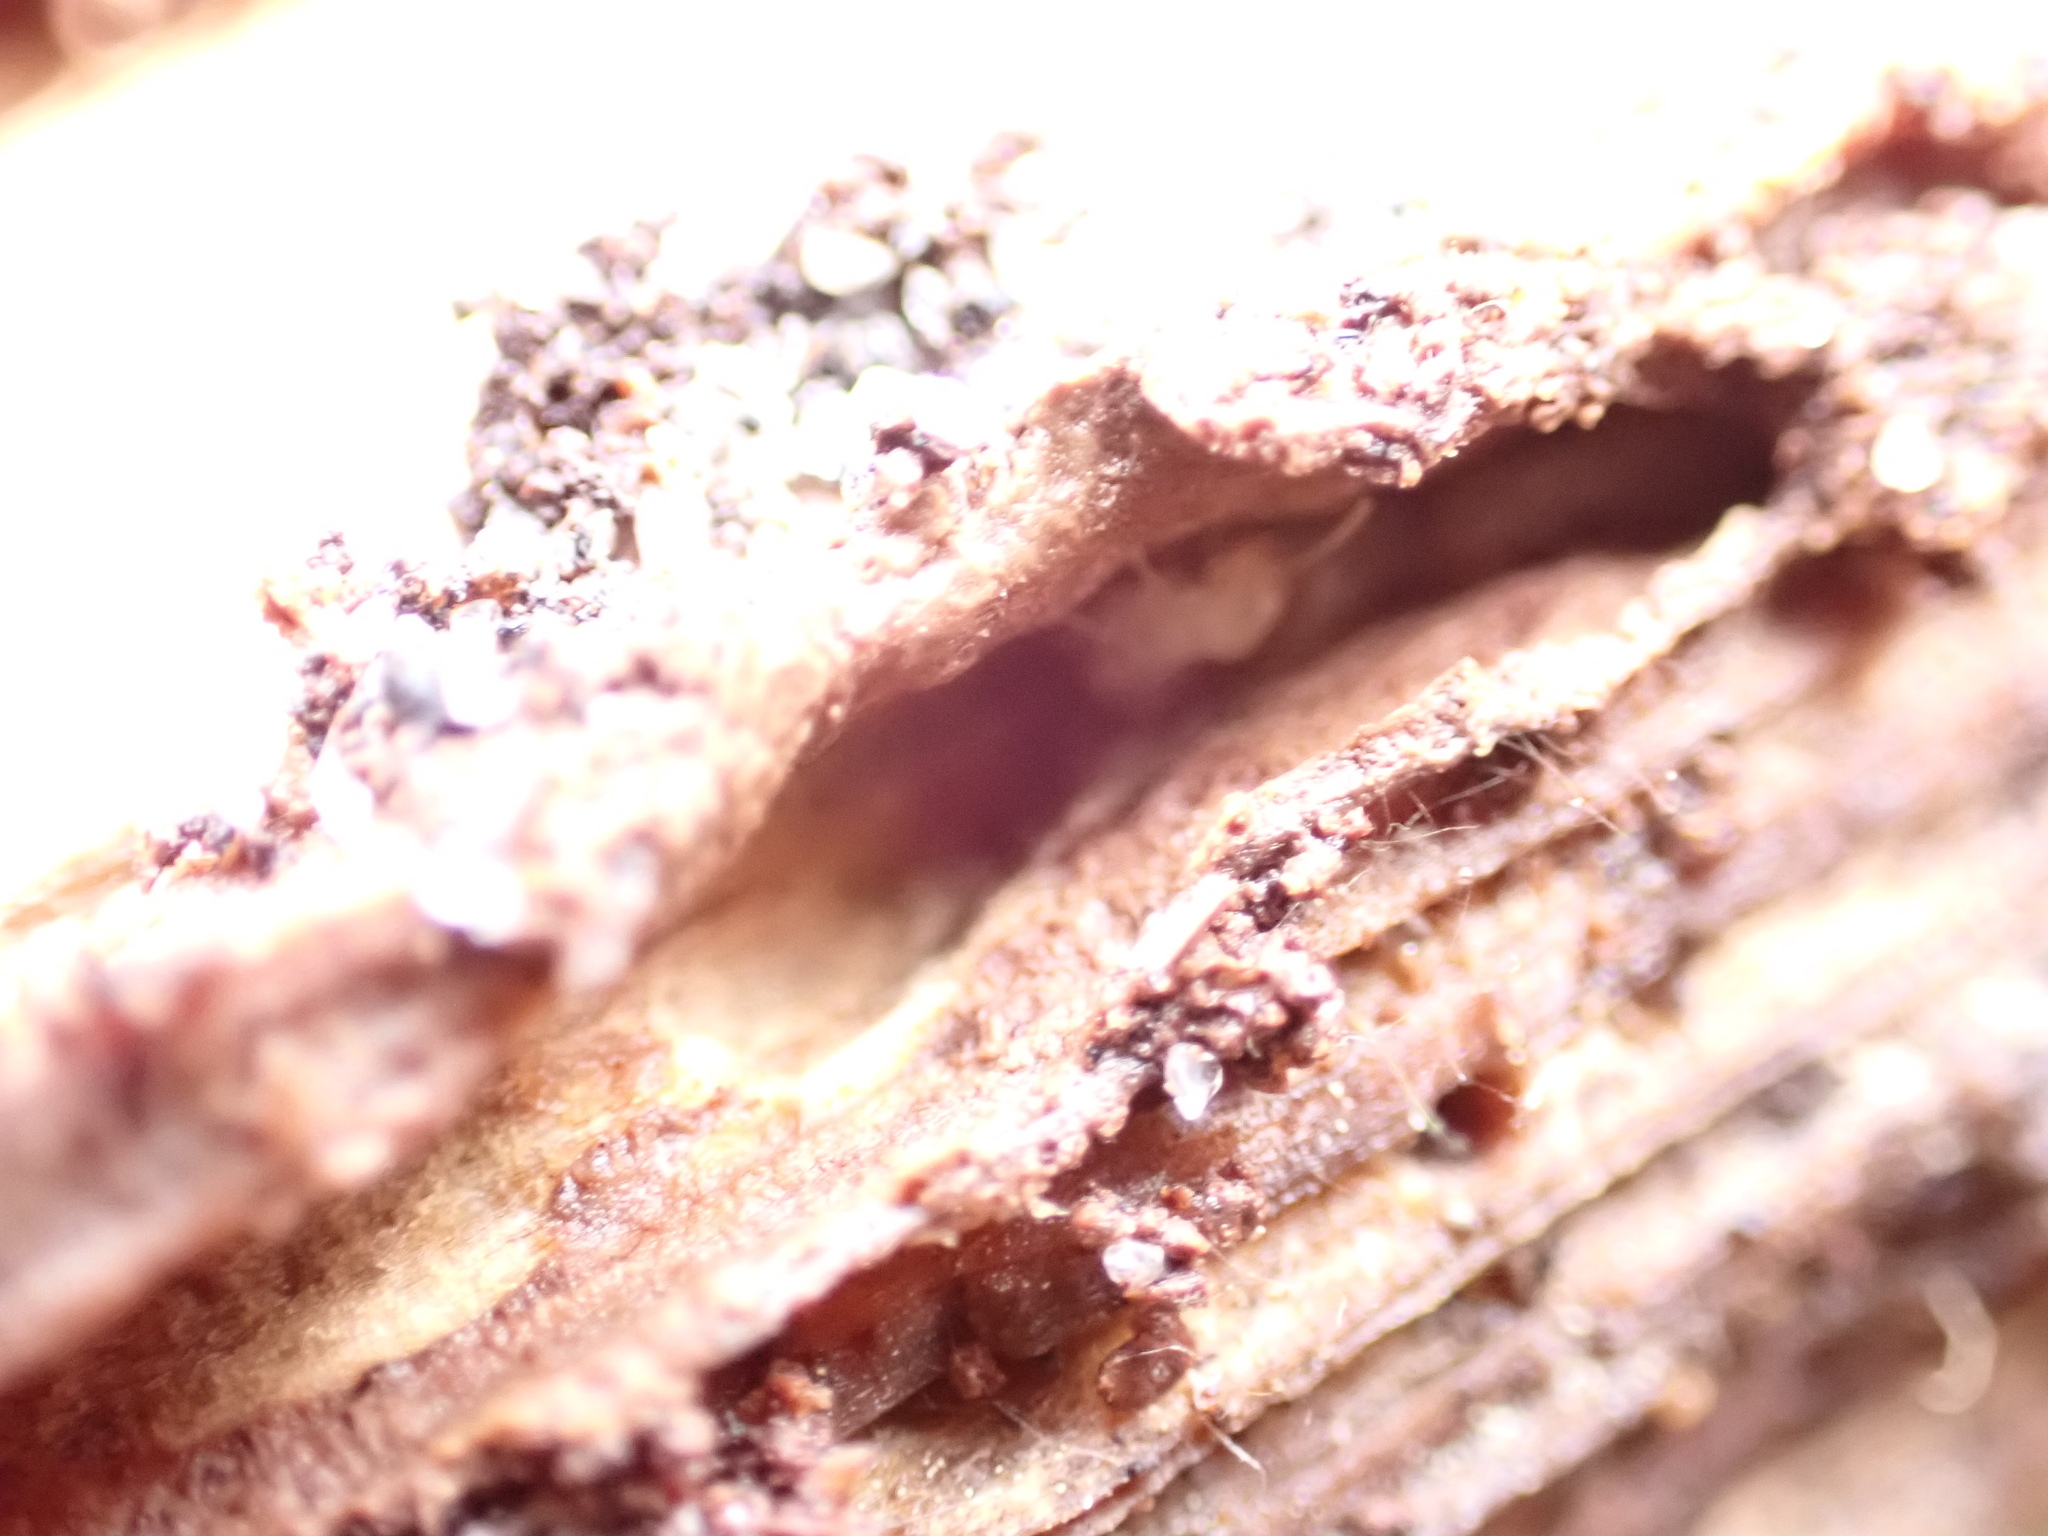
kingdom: Animalia
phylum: Arthropoda
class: Insecta
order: Blattodea
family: Rhinotermitidae
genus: Reticulitermes
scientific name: Reticulitermes flavipes
